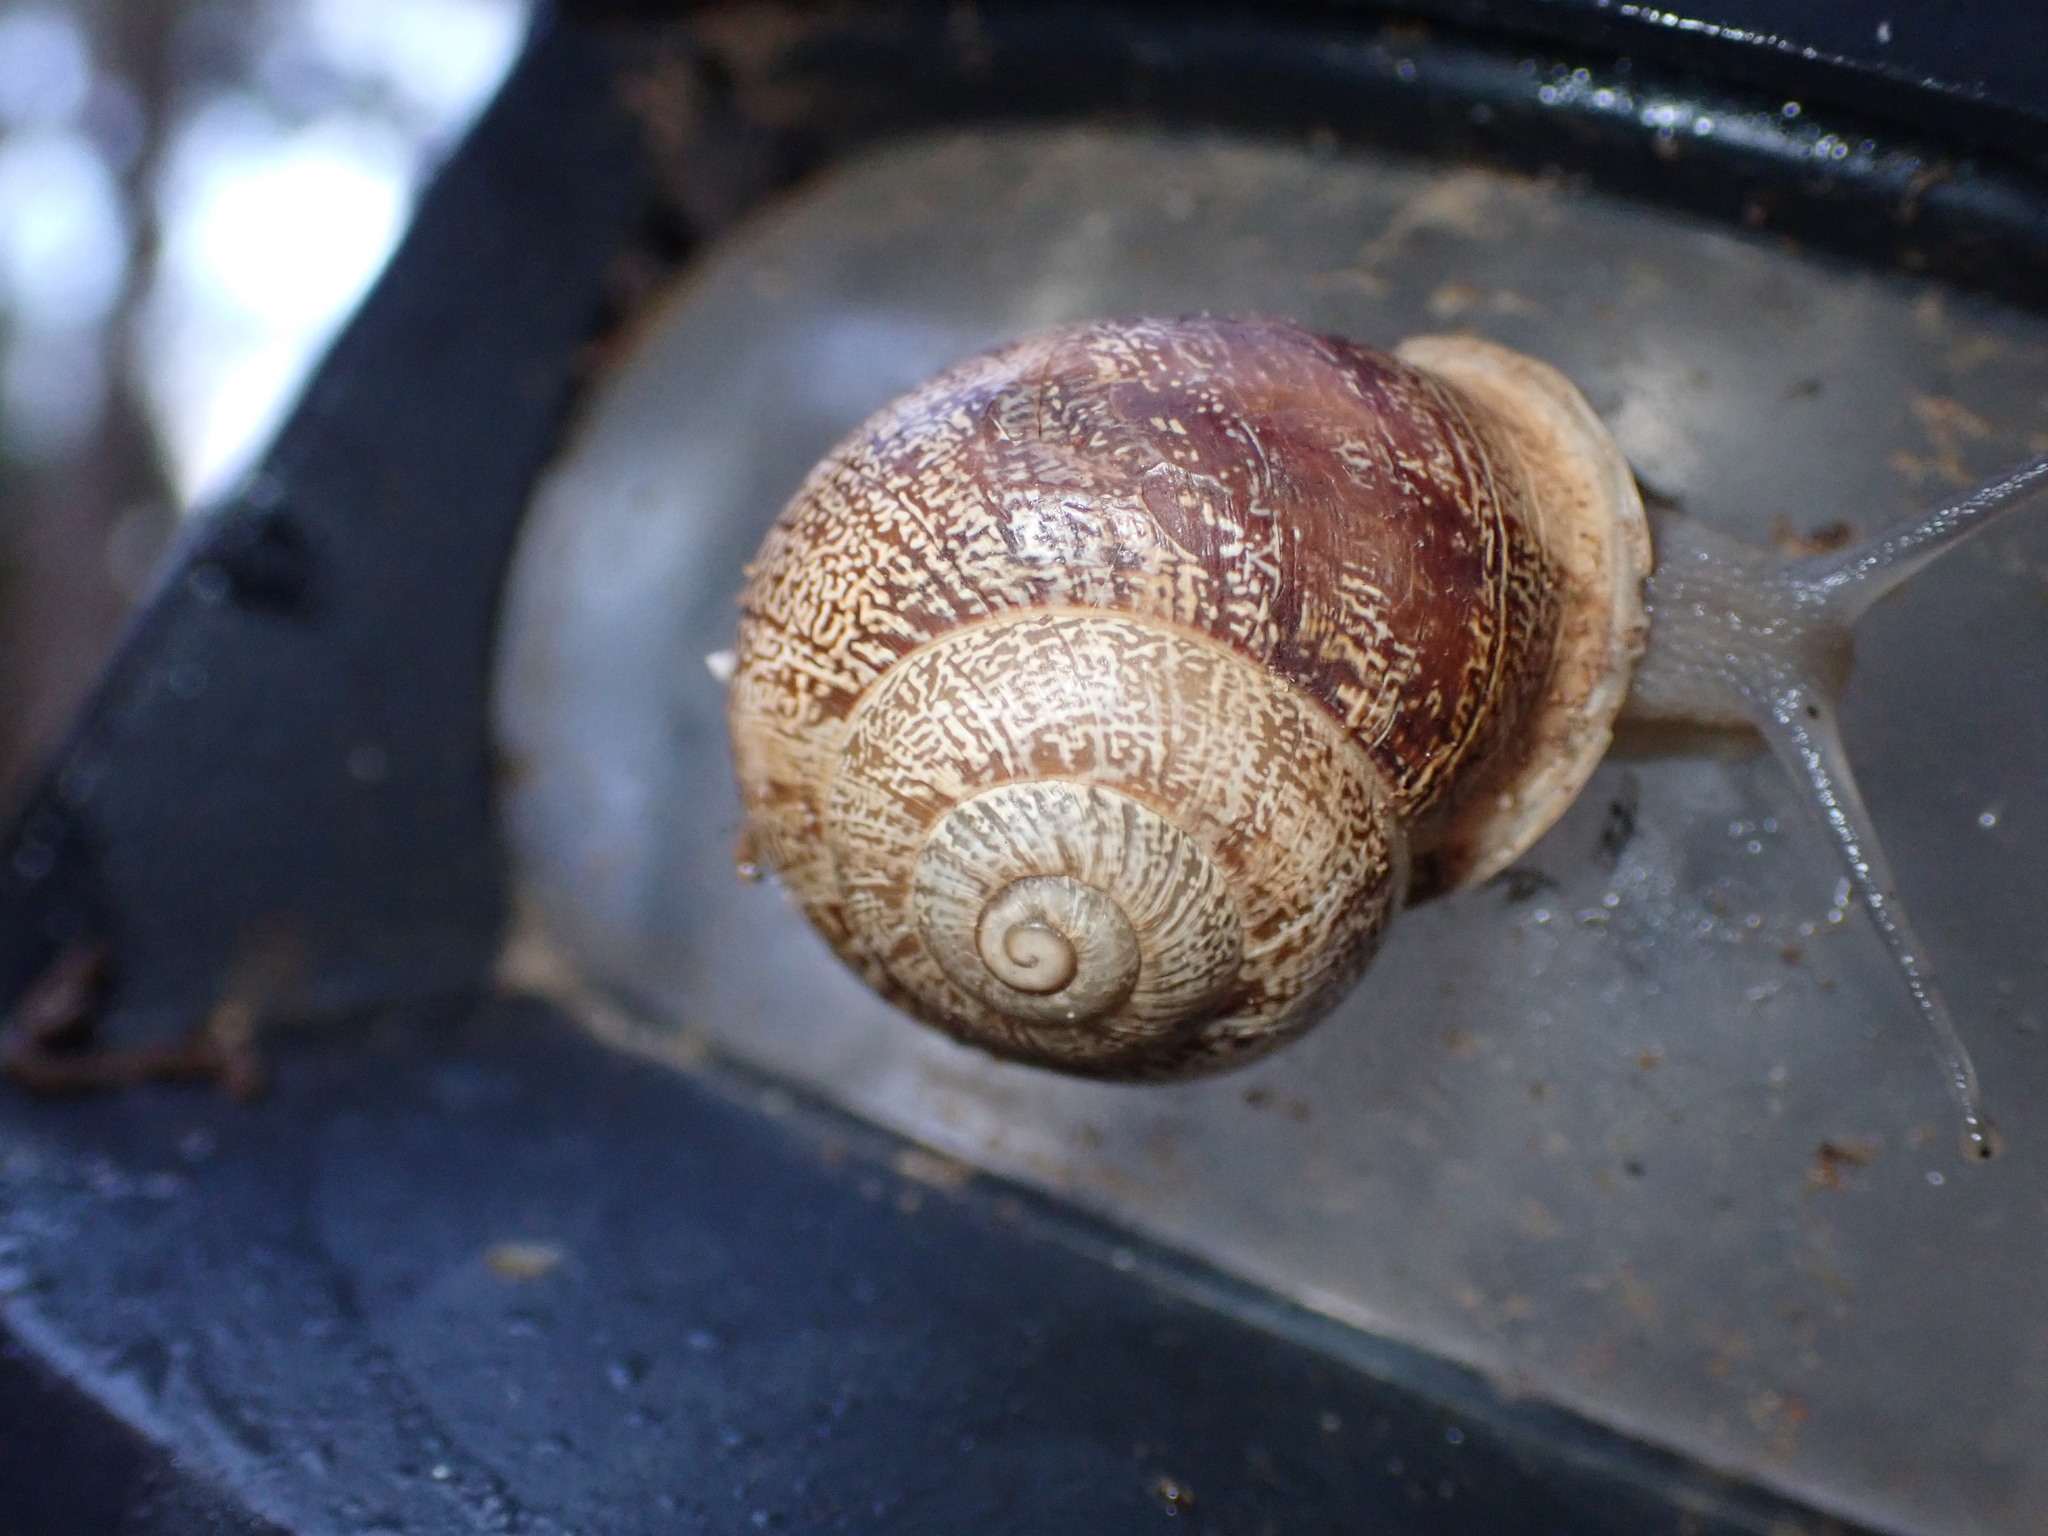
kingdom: Animalia
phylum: Mollusca
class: Gastropoda
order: Stylommatophora
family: Helicidae
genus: Eobania
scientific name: Eobania vermiculata
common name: Chocolateband snail
